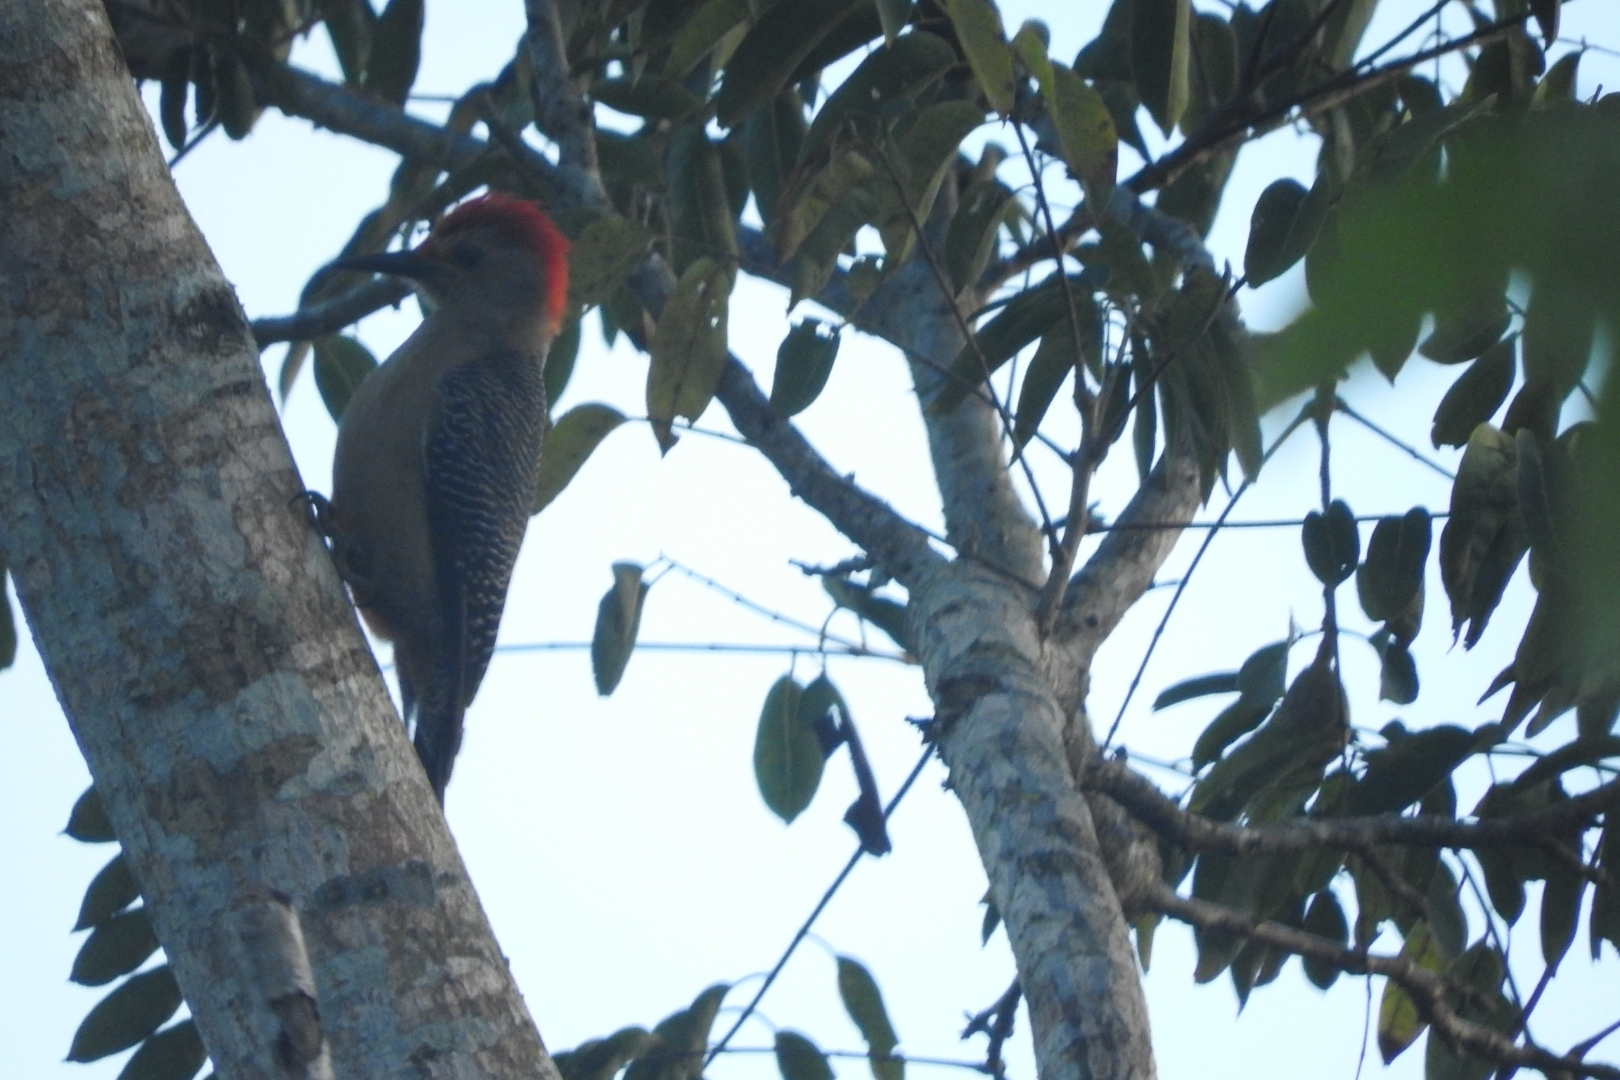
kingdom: Animalia
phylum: Chordata
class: Aves
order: Piciformes
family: Picidae
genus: Melanerpes
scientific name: Melanerpes aurifrons
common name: Golden-fronted woodpecker
